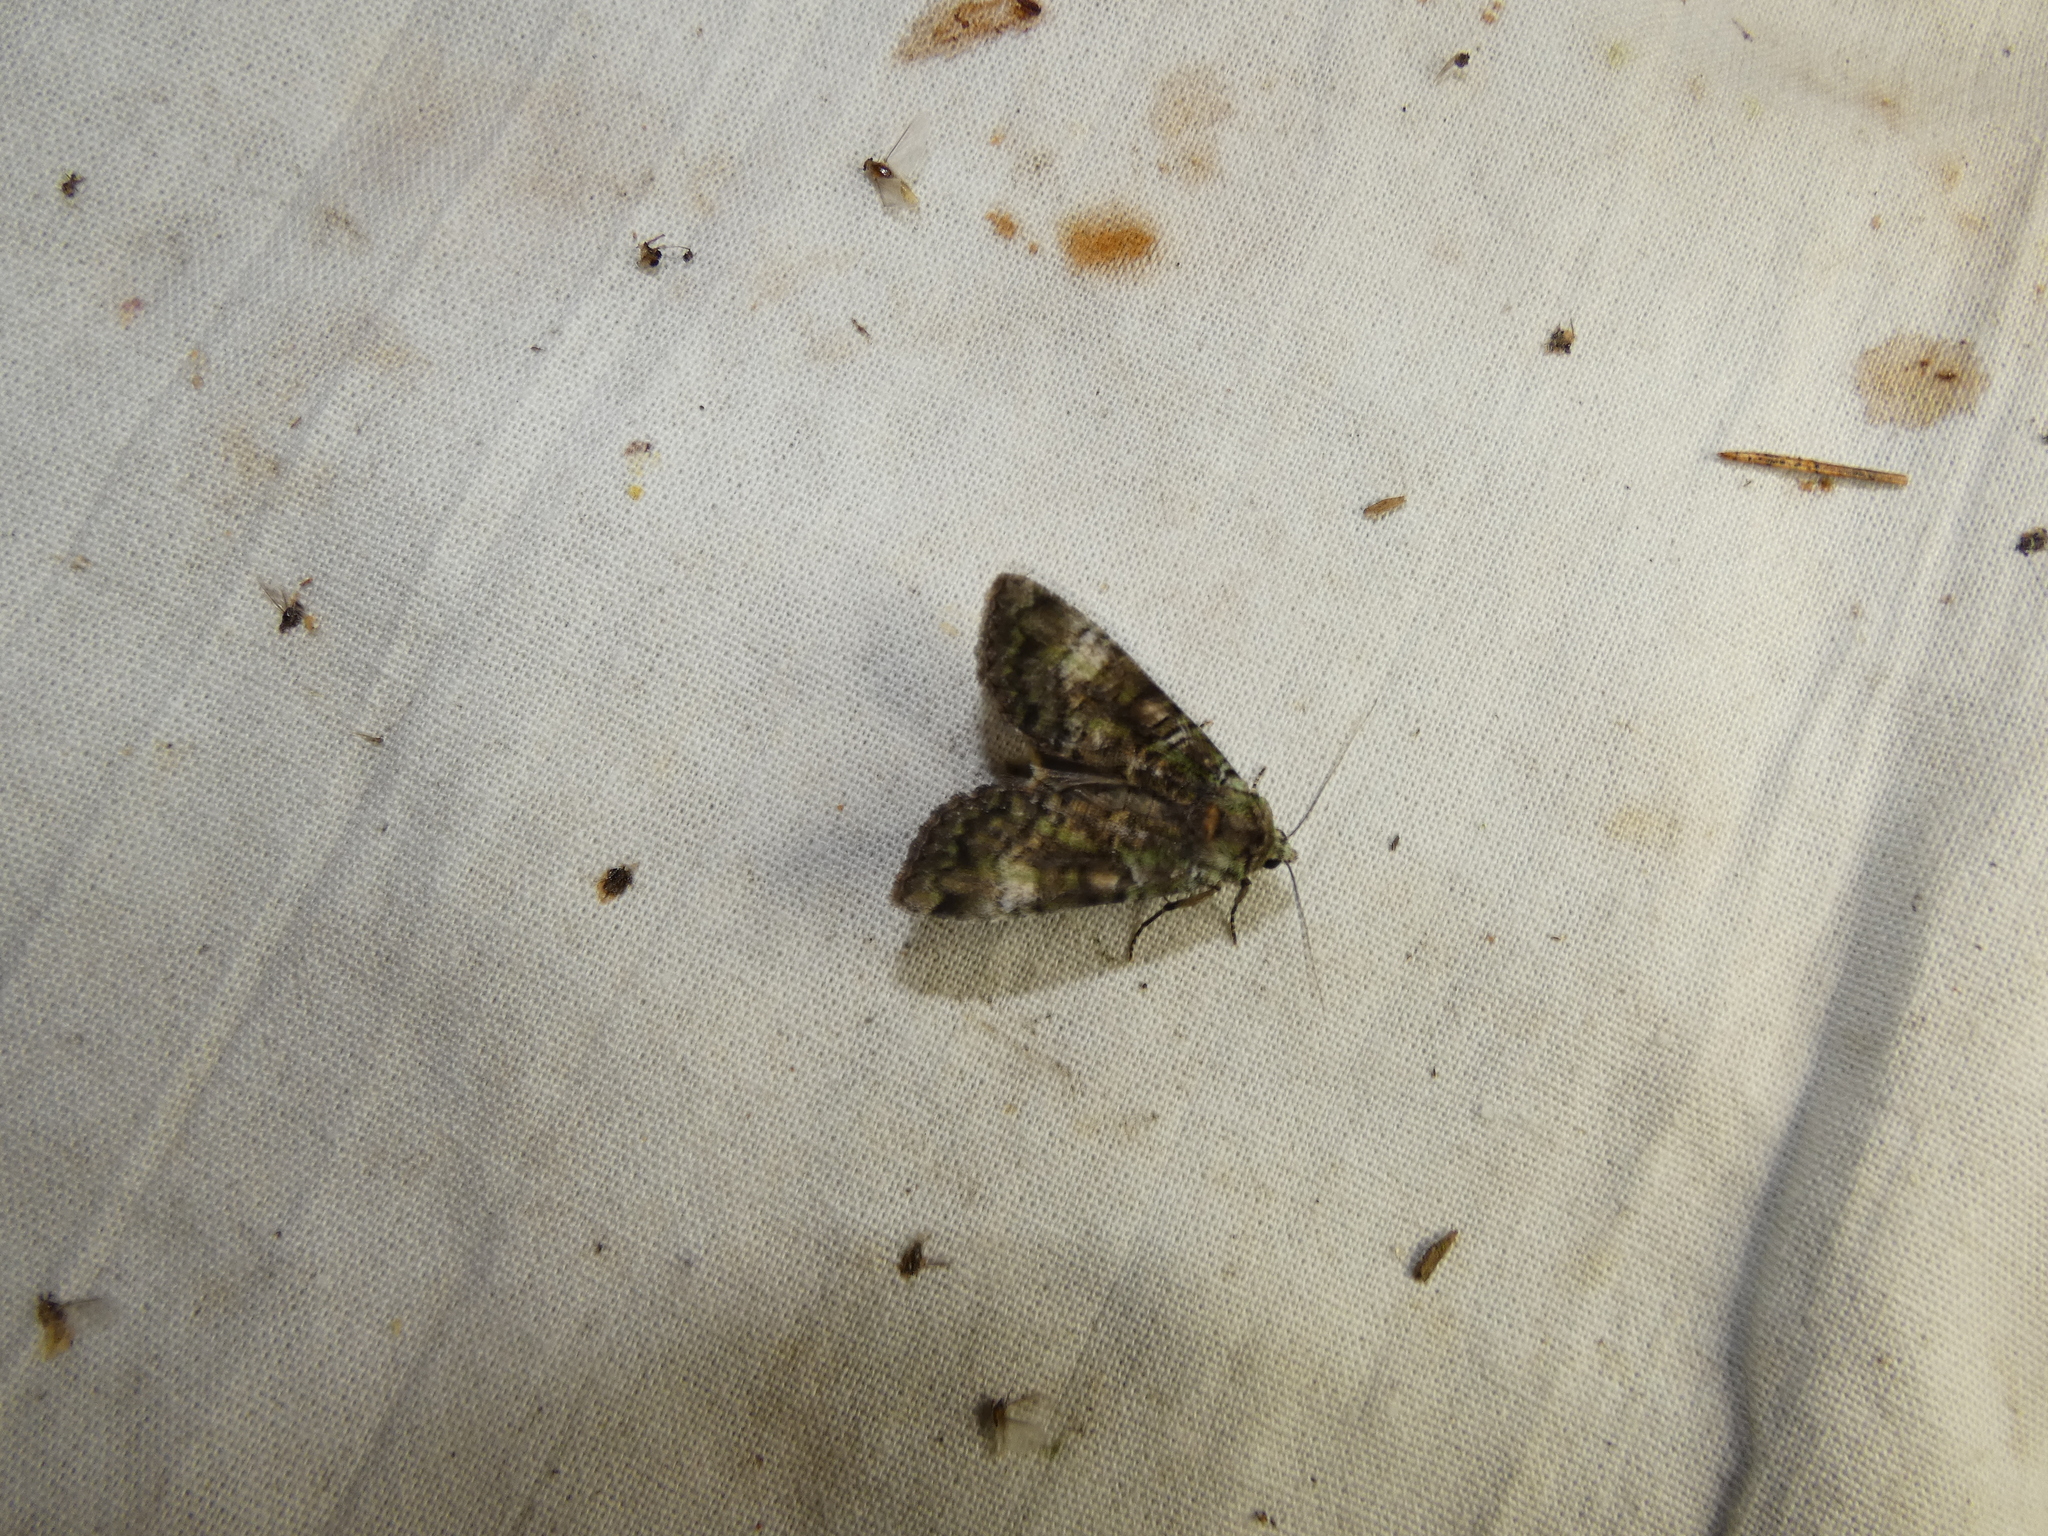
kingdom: Animalia
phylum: Arthropoda
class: Insecta
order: Lepidoptera
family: Noctuidae
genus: Anaplectoides
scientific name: Anaplectoides prasina
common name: Green arches
